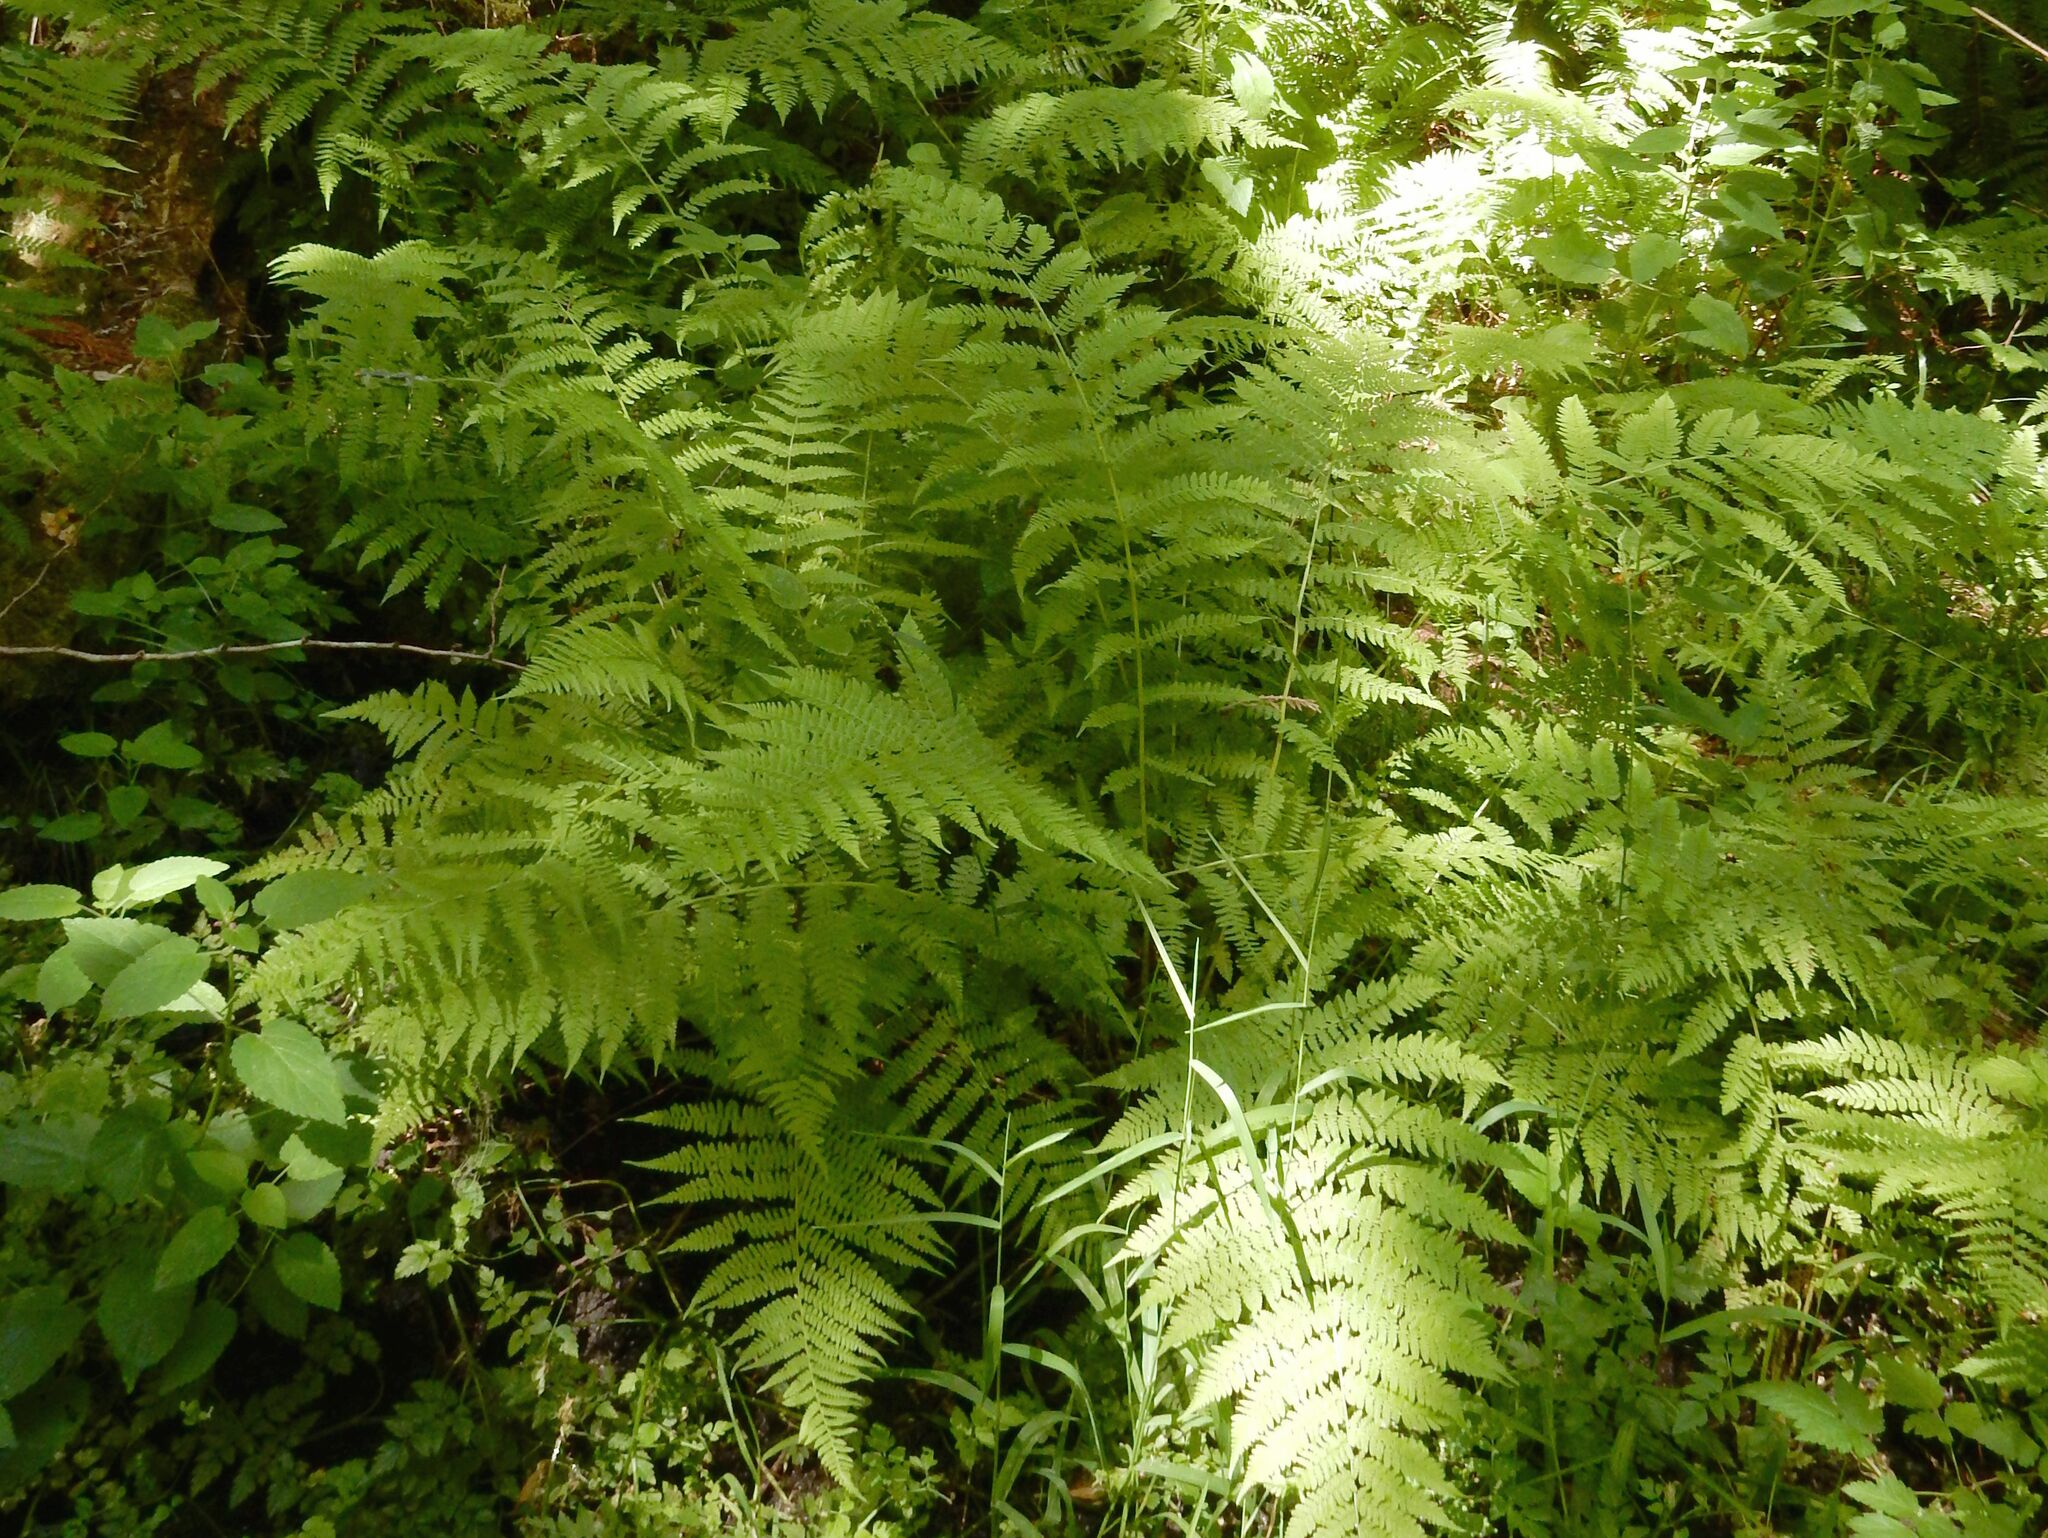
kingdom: Plantae
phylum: Tracheophyta
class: Polypodiopsida
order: Polypodiales
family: Athyriaceae
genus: Athyrium
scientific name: Athyrium cyclosorum
